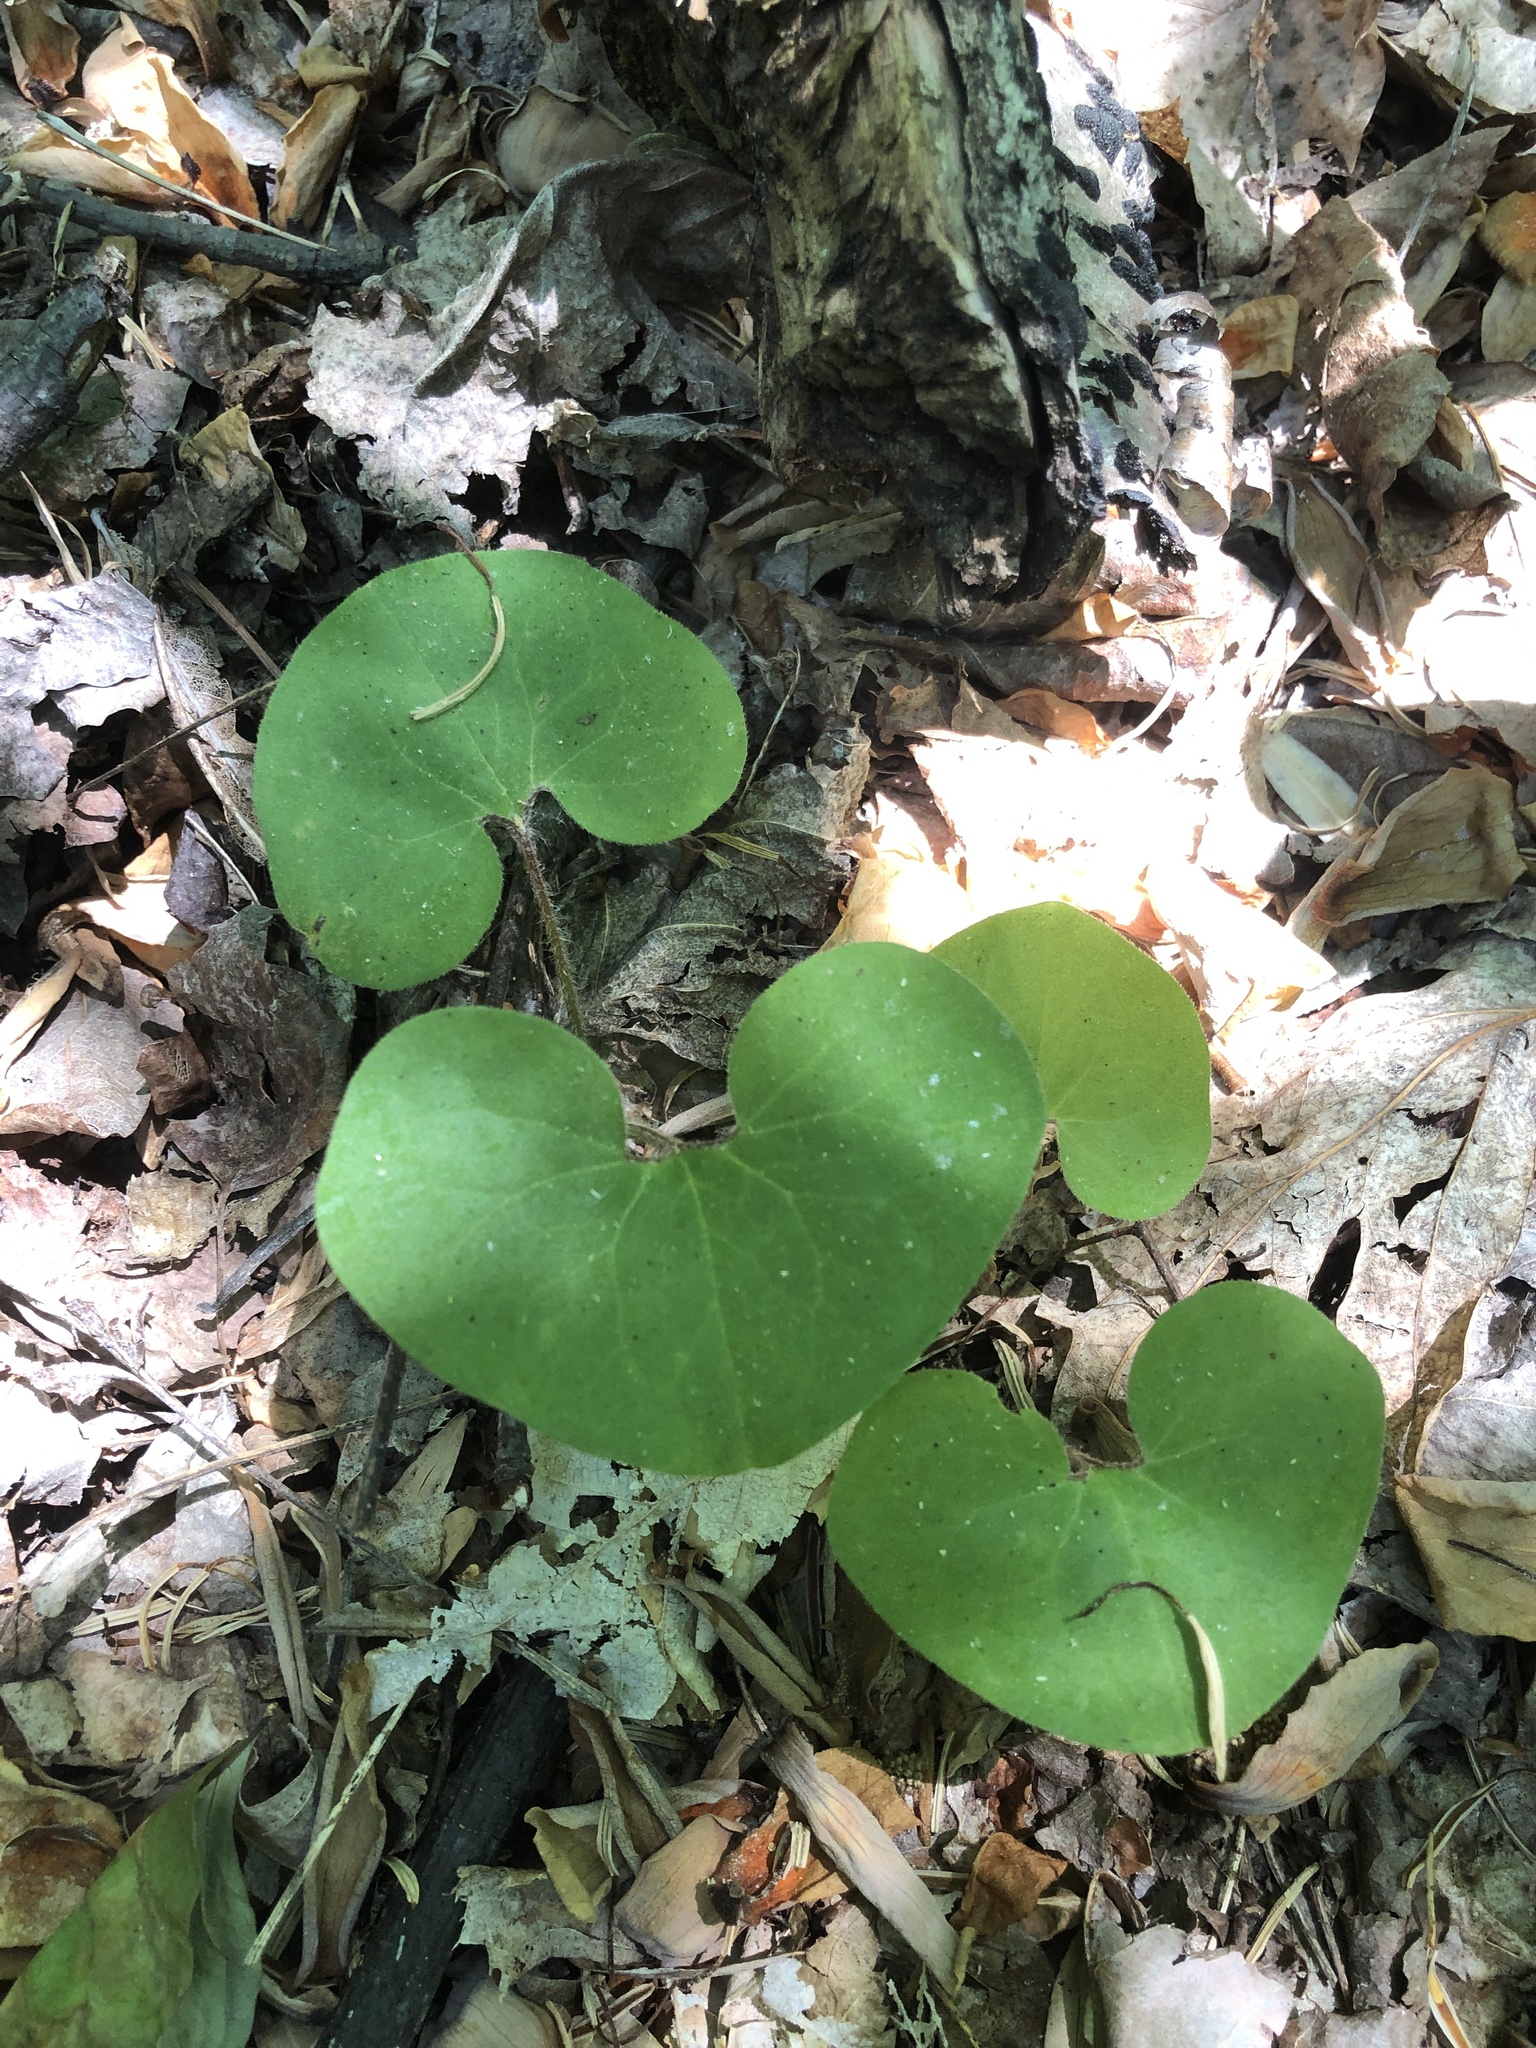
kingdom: Plantae
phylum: Tracheophyta
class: Magnoliopsida
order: Piperales
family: Aristolochiaceae
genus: Asarum
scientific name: Asarum canadense
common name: Wild ginger
